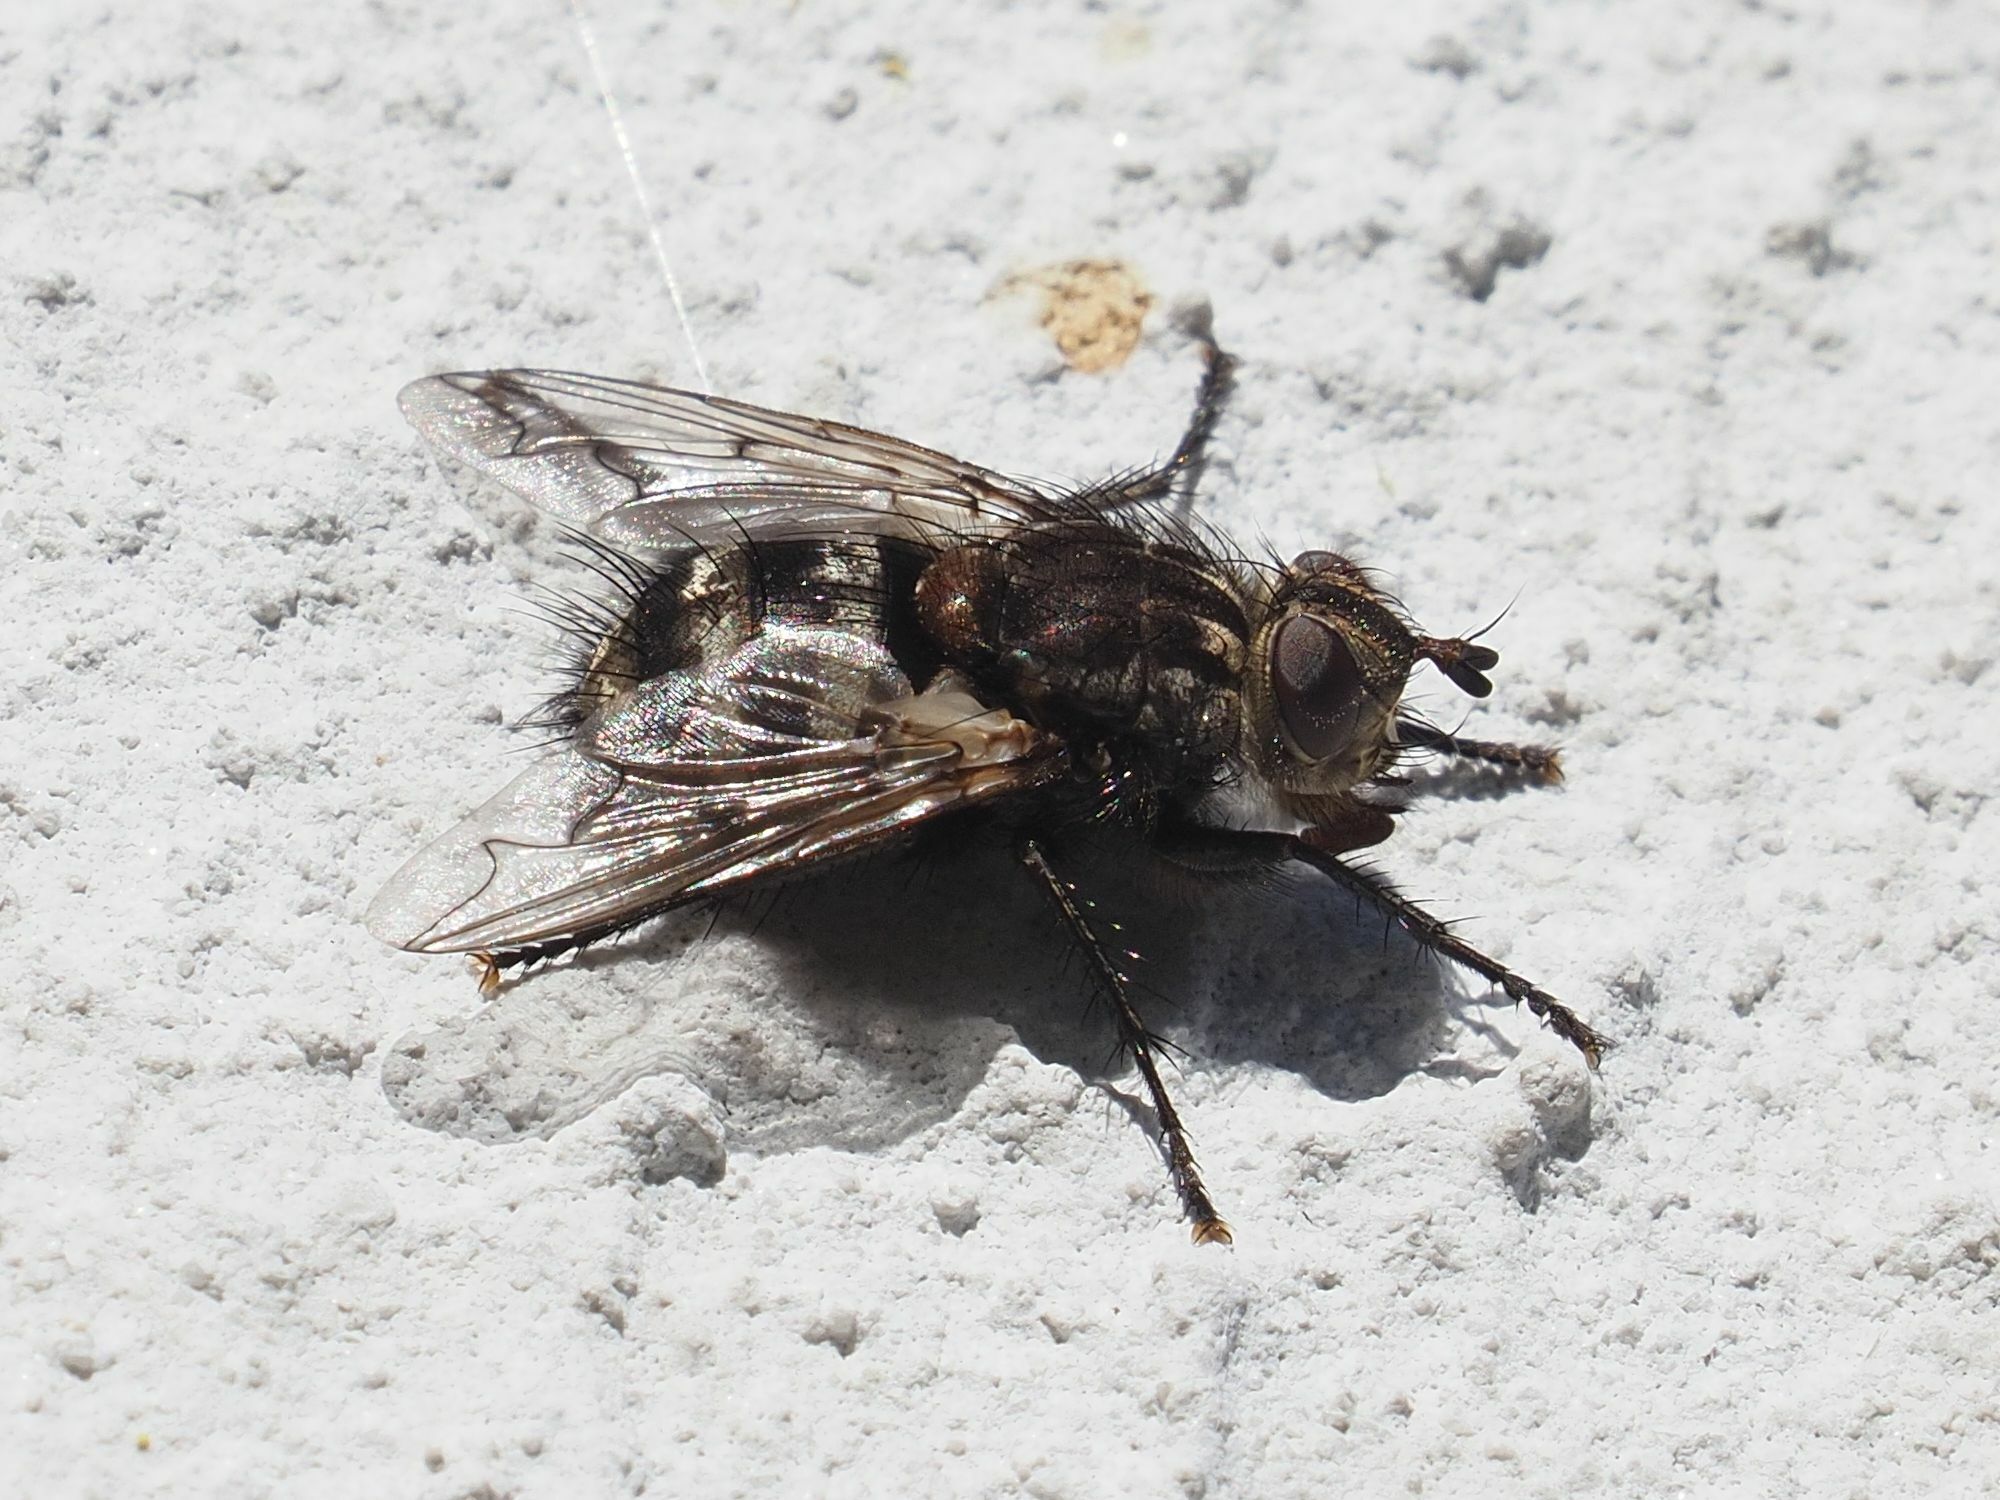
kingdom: Animalia
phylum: Arthropoda
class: Insecta
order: Diptera
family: Tachinidae
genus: Panzeria
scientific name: Panzeria puparum
